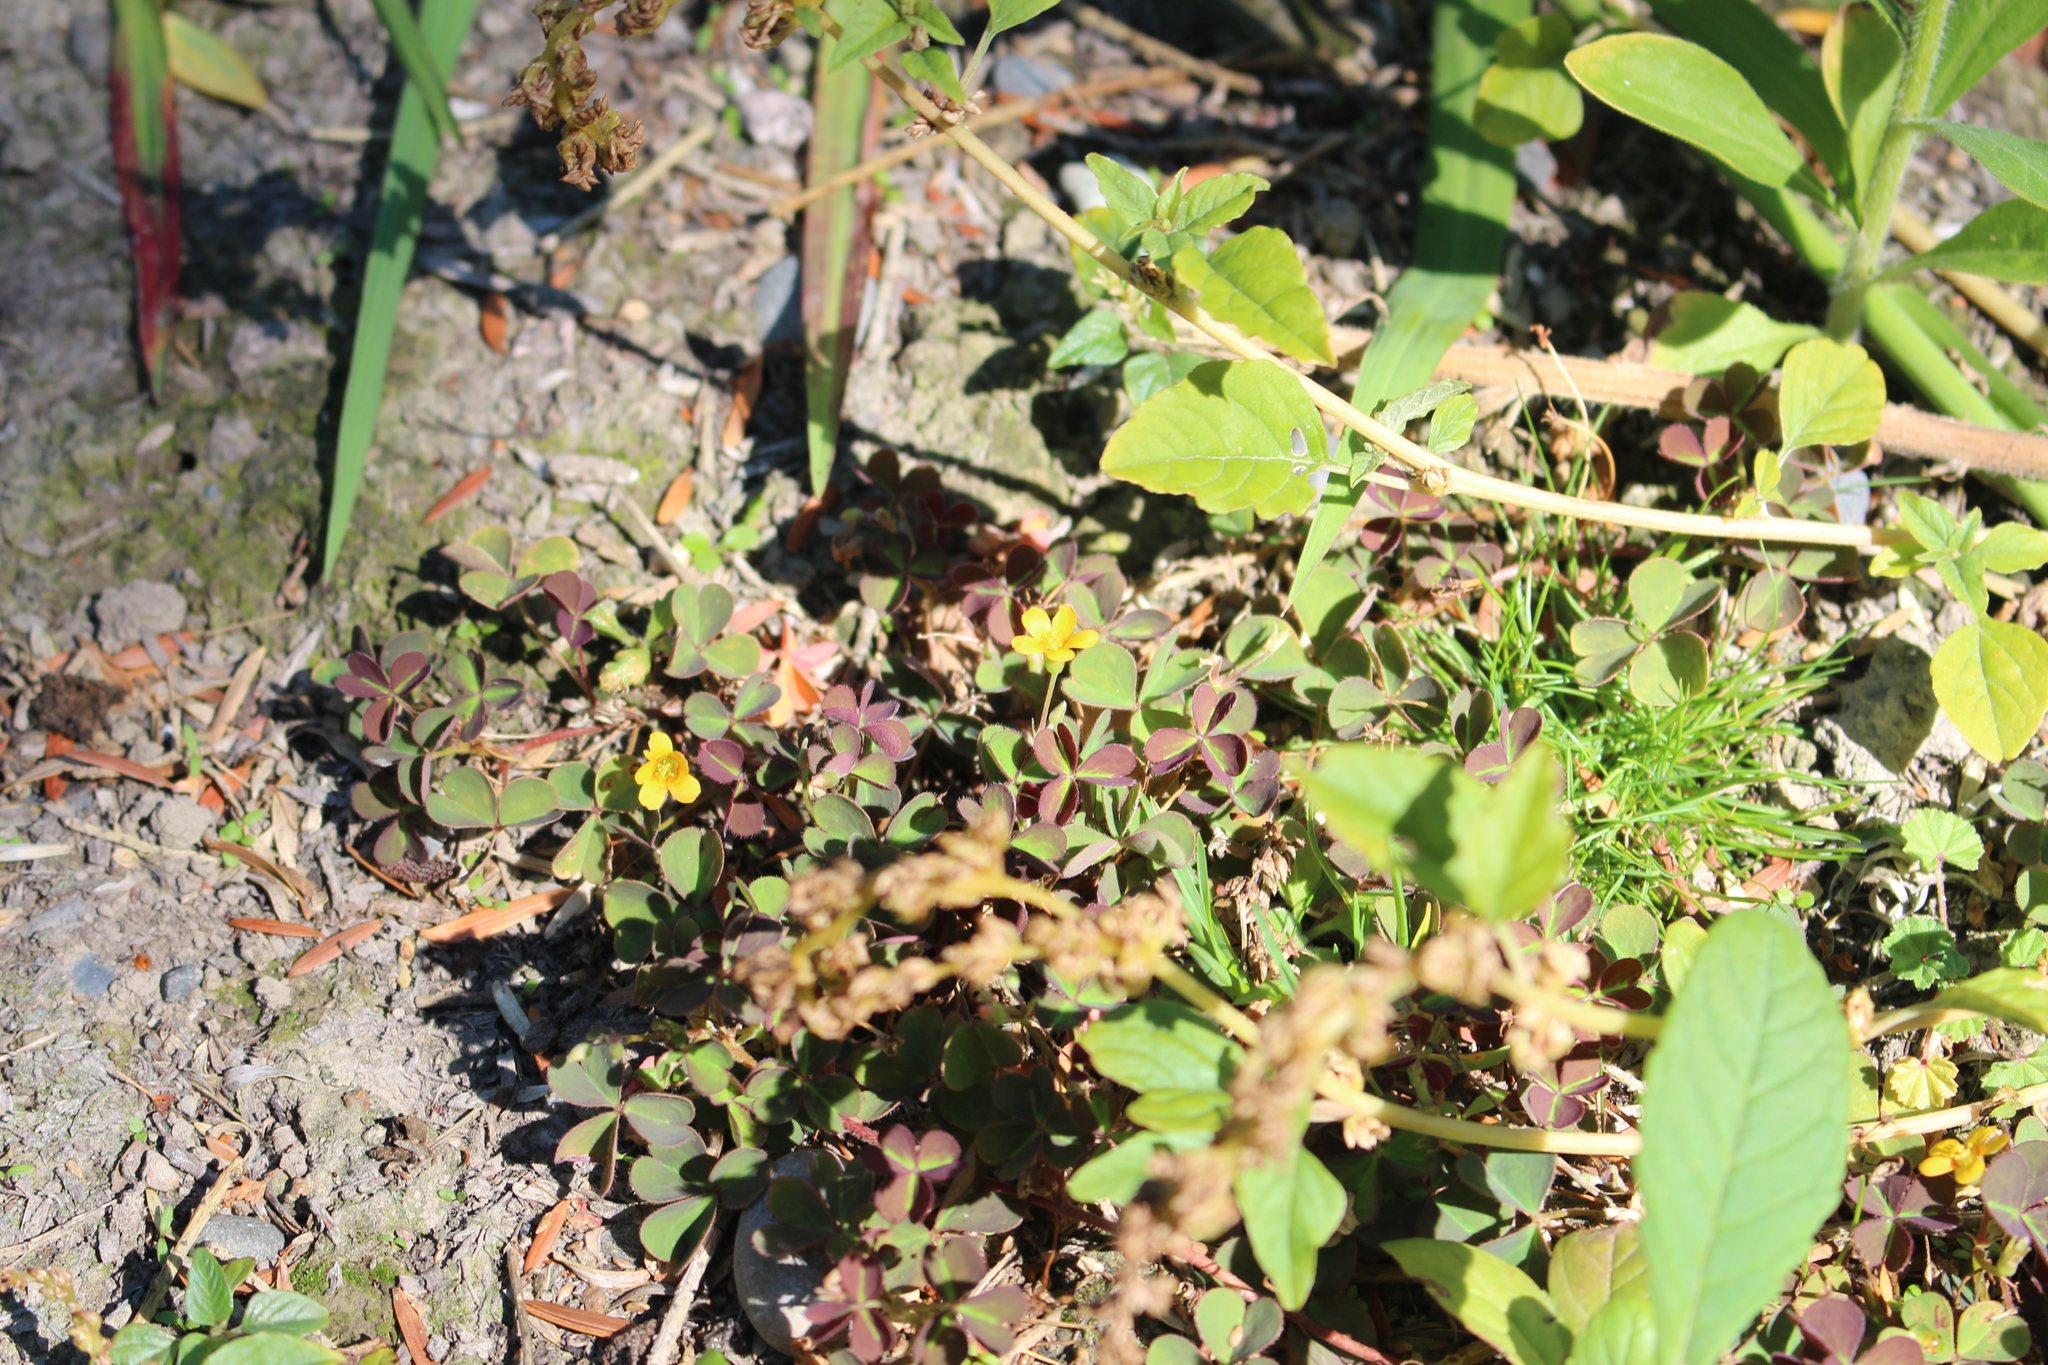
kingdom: Plantae
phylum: Tracheophyta
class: Magnoliopsida
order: Oxalidales
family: Oxalidaceae
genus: Oxalis
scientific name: Oxalis corniculata
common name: Procumbent yellow-sorrel
